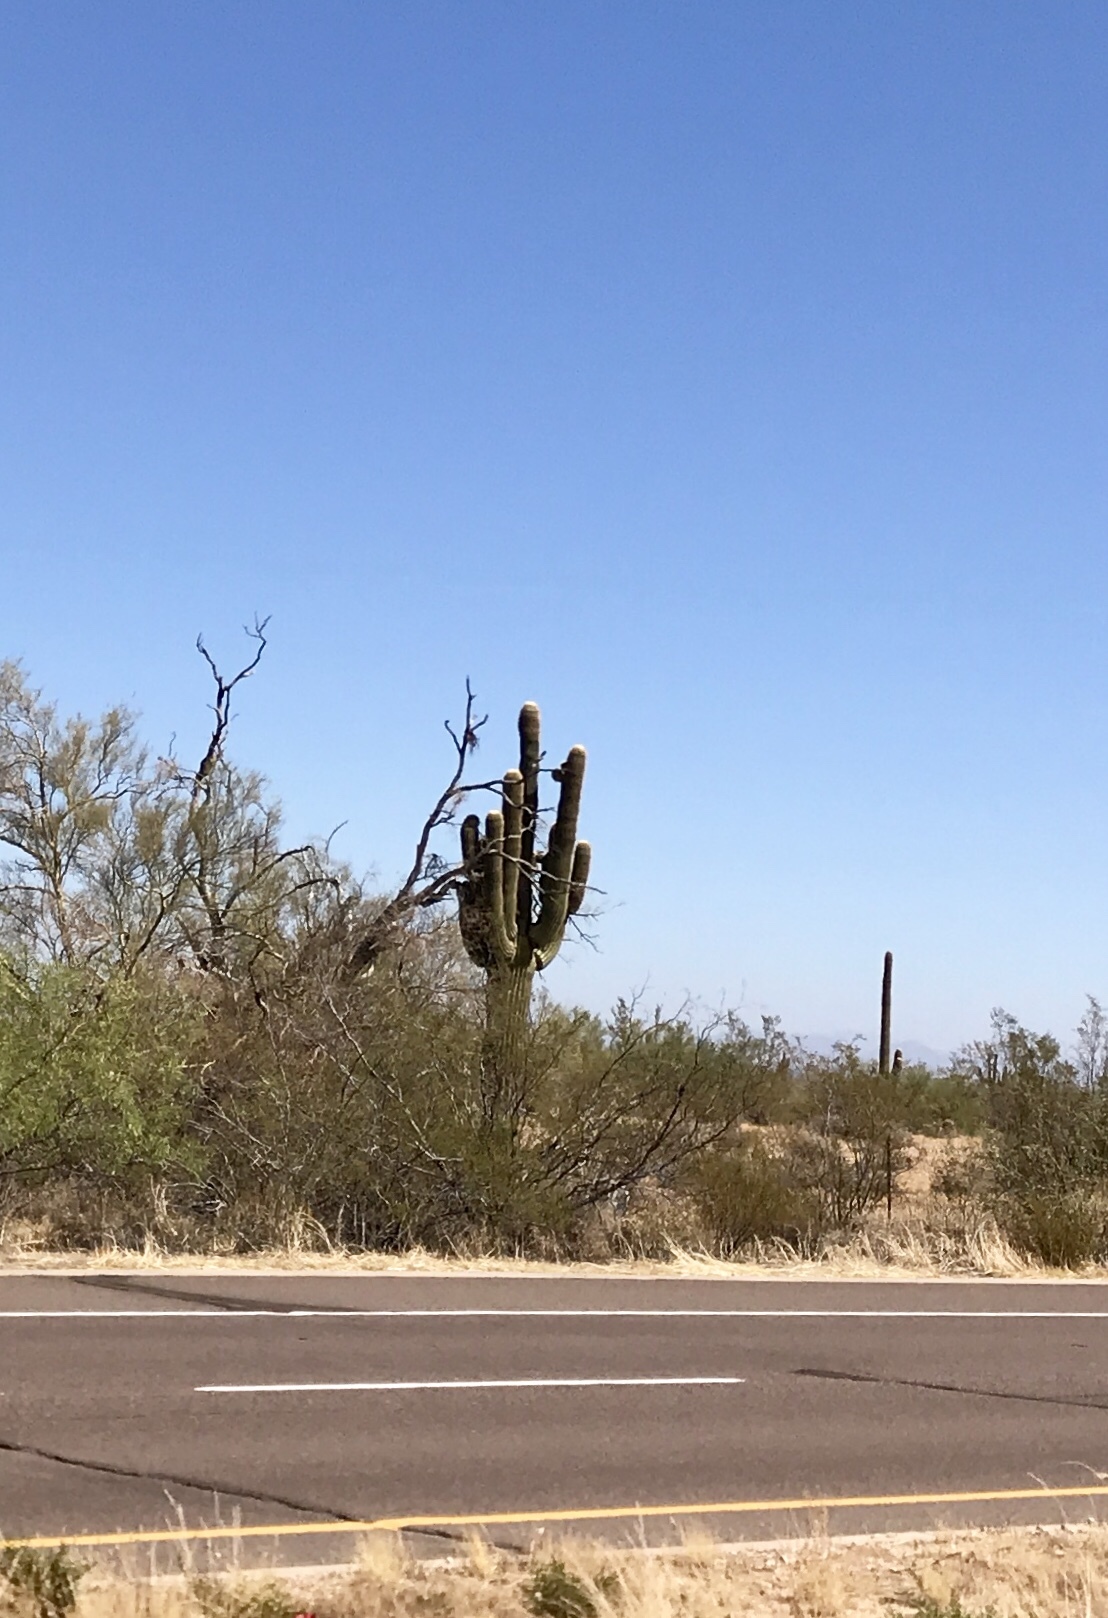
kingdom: Plantae
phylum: Tracheophyta
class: Magnoliopsida
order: Caryophyllales
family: Cactaceae
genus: Carnegiea
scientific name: Carnegiea gigantea
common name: Saguaro
